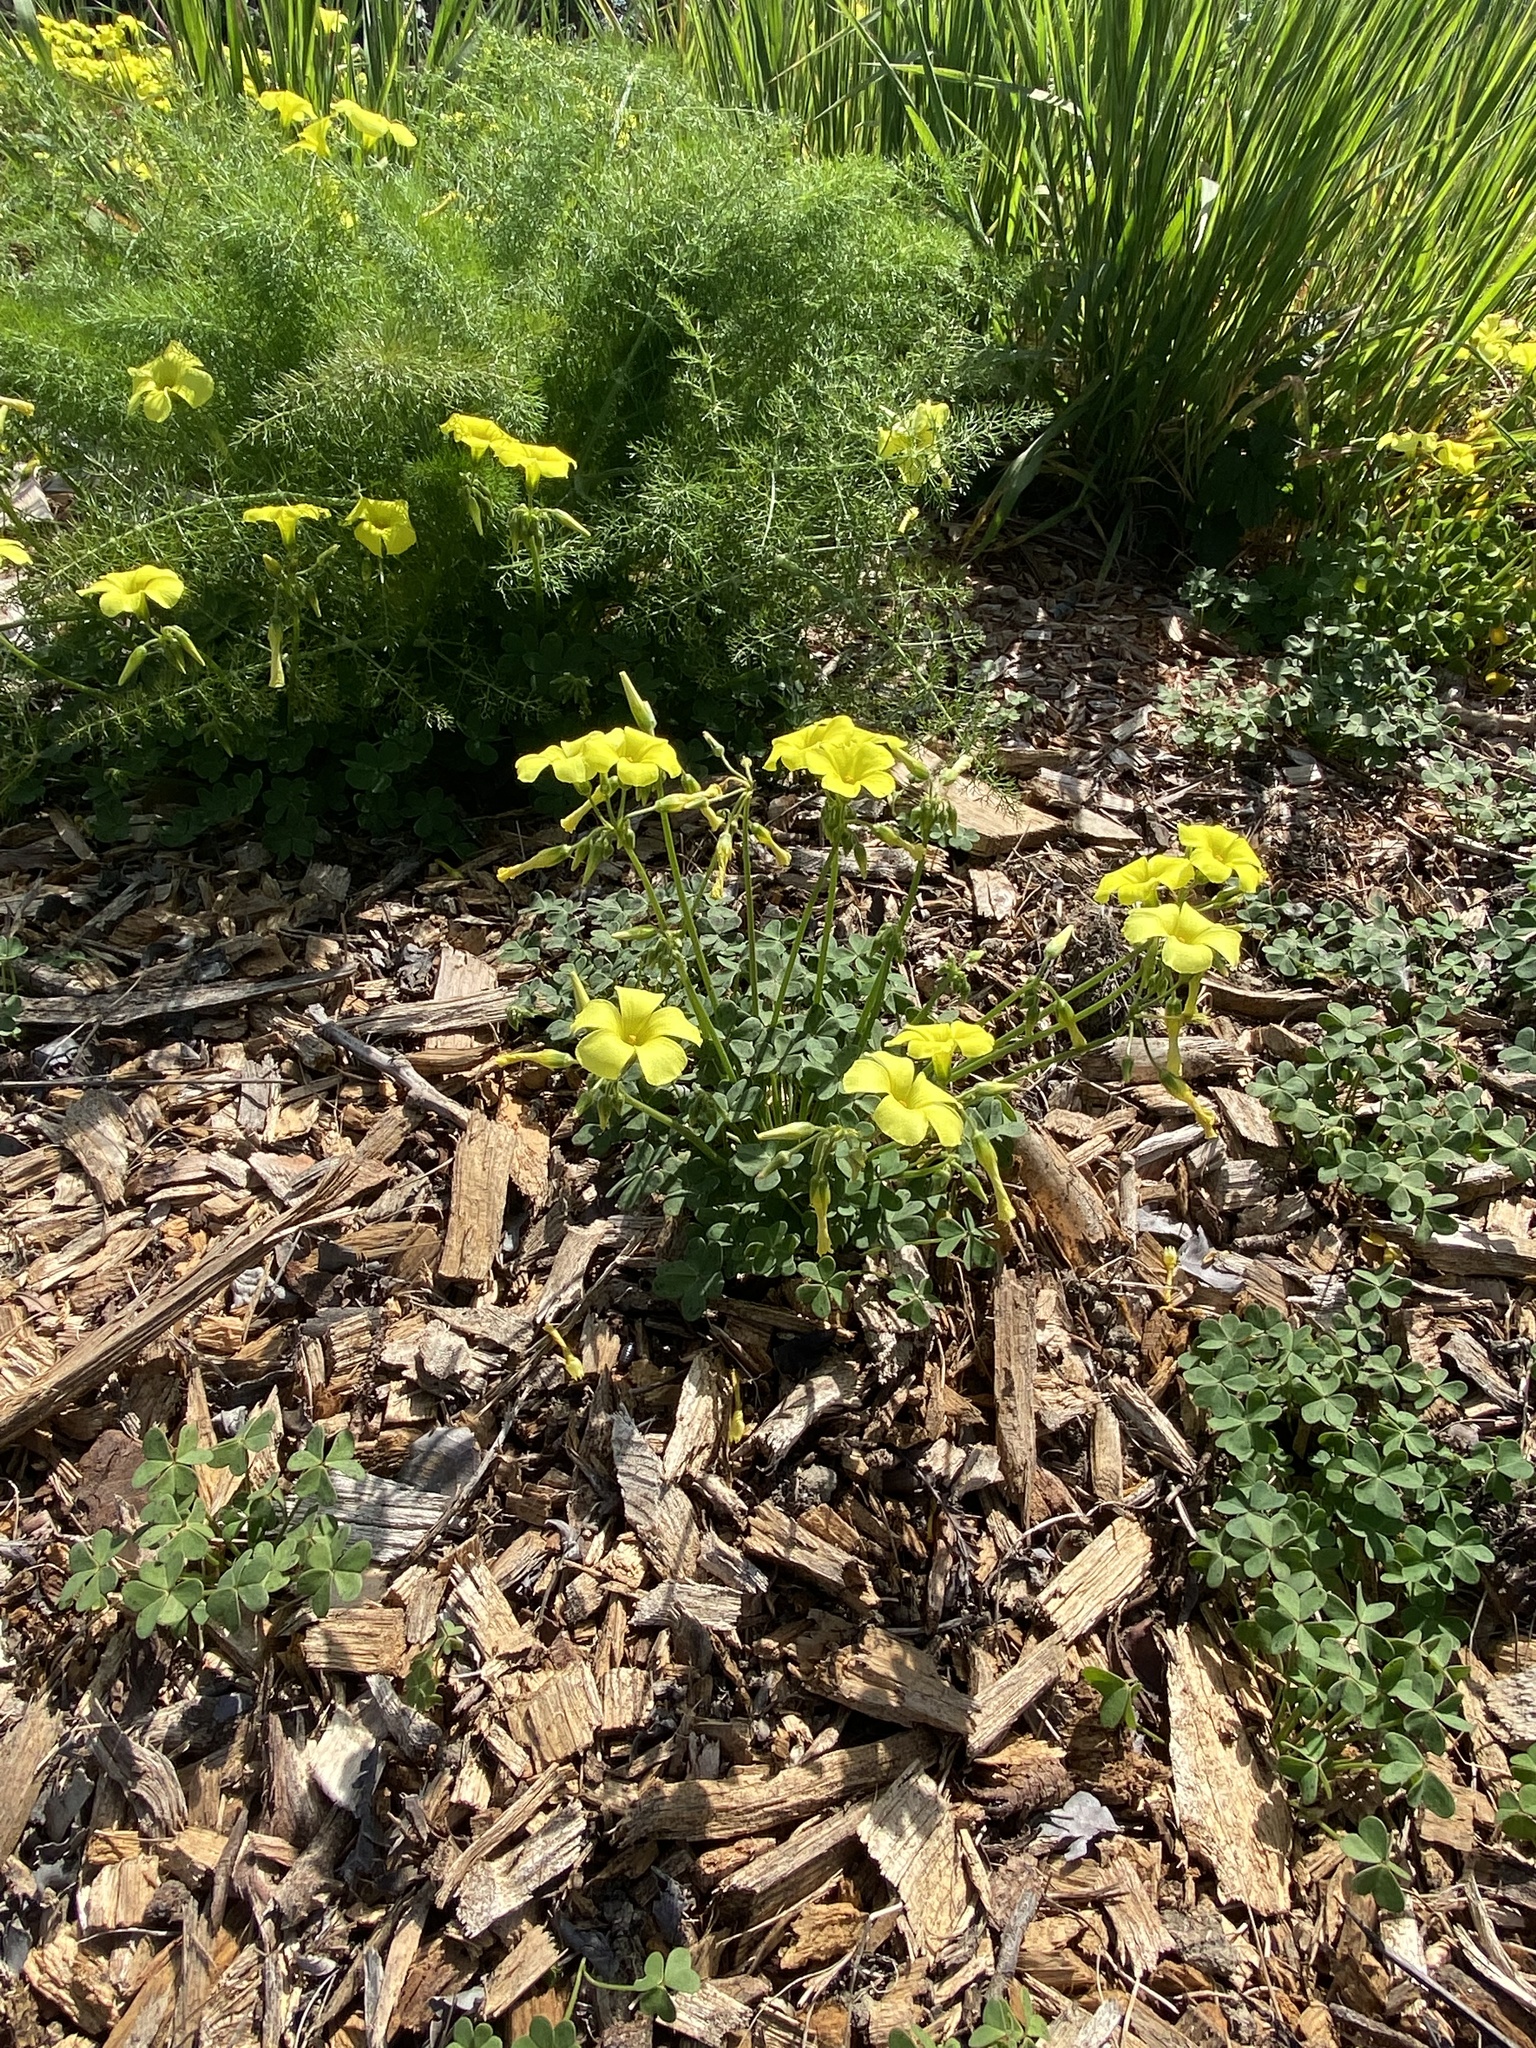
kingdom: Plantae
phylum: Tracheophyta
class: Magnoliopsida
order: Oxalidales
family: Oxalidaceae
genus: Oxalis
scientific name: Oxalis pes-caprae
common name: Bermuda-buttercup
